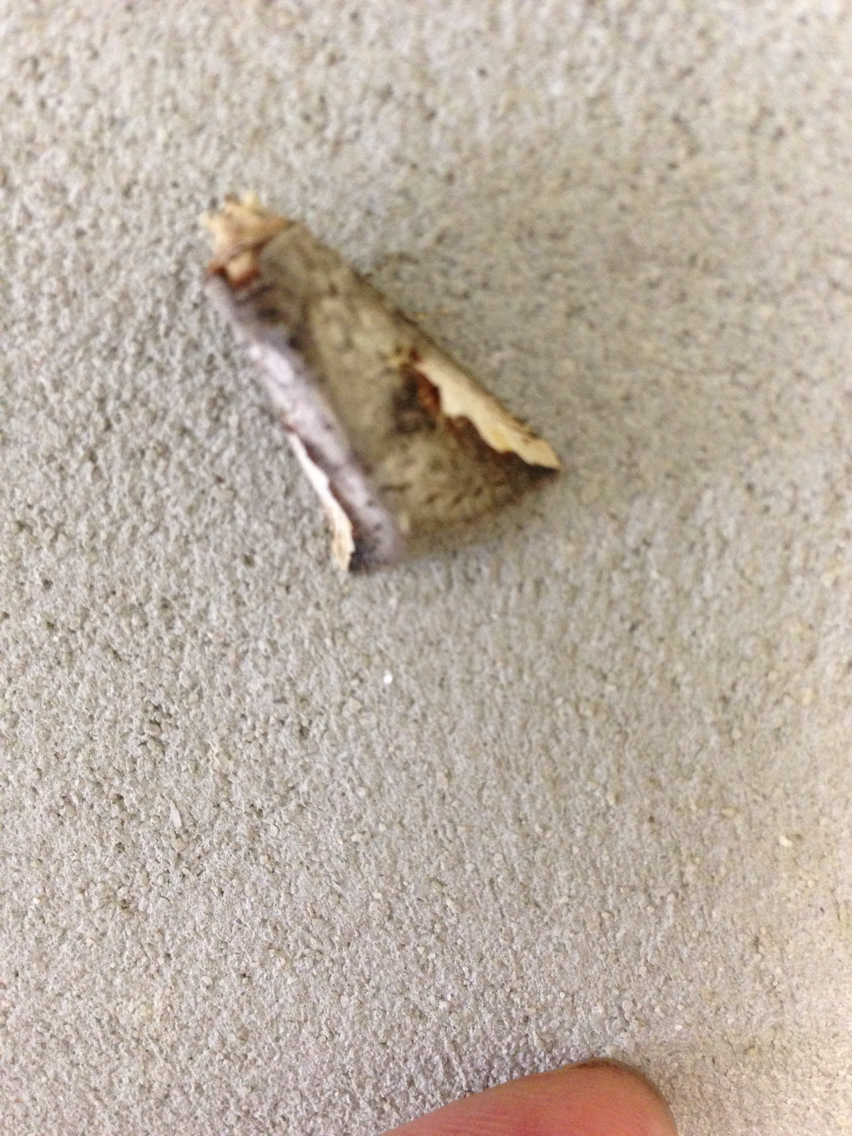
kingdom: Animalia
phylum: Arthropoda
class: Insecta
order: Lepidoptera
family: Notodontidae
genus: Symmerista
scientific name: Symmerista
